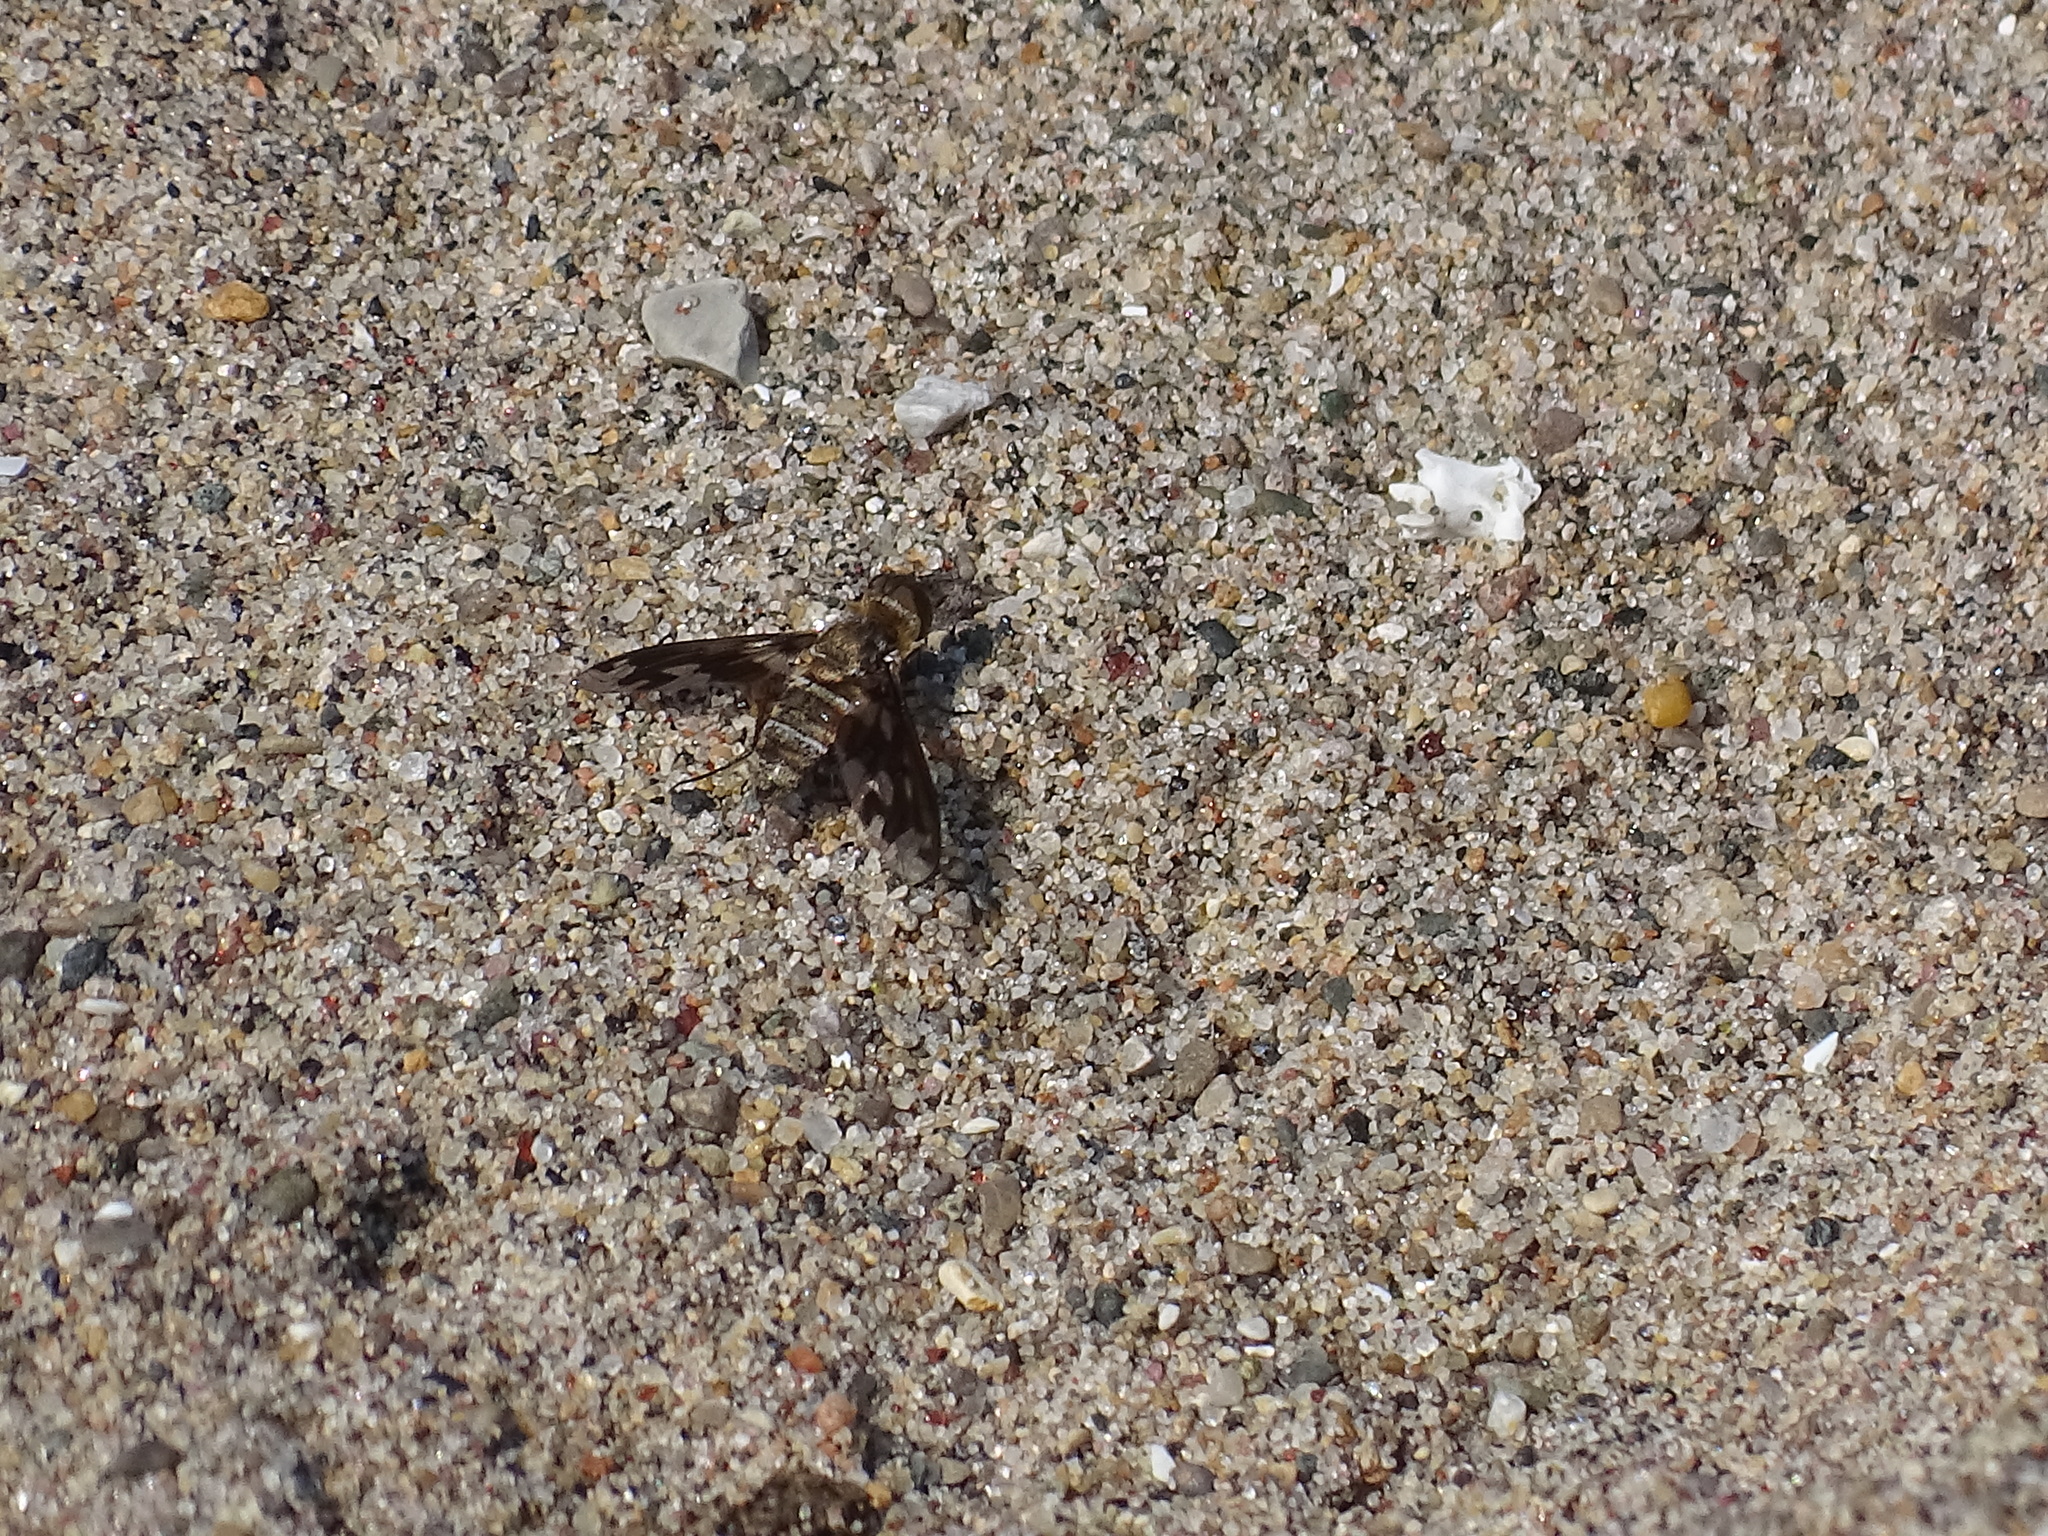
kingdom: Animalia
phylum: Arthropoda
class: Insecta
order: Diptera
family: Bombyliidae
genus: Exoprosopa
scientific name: Exoprosopa fascipennis
